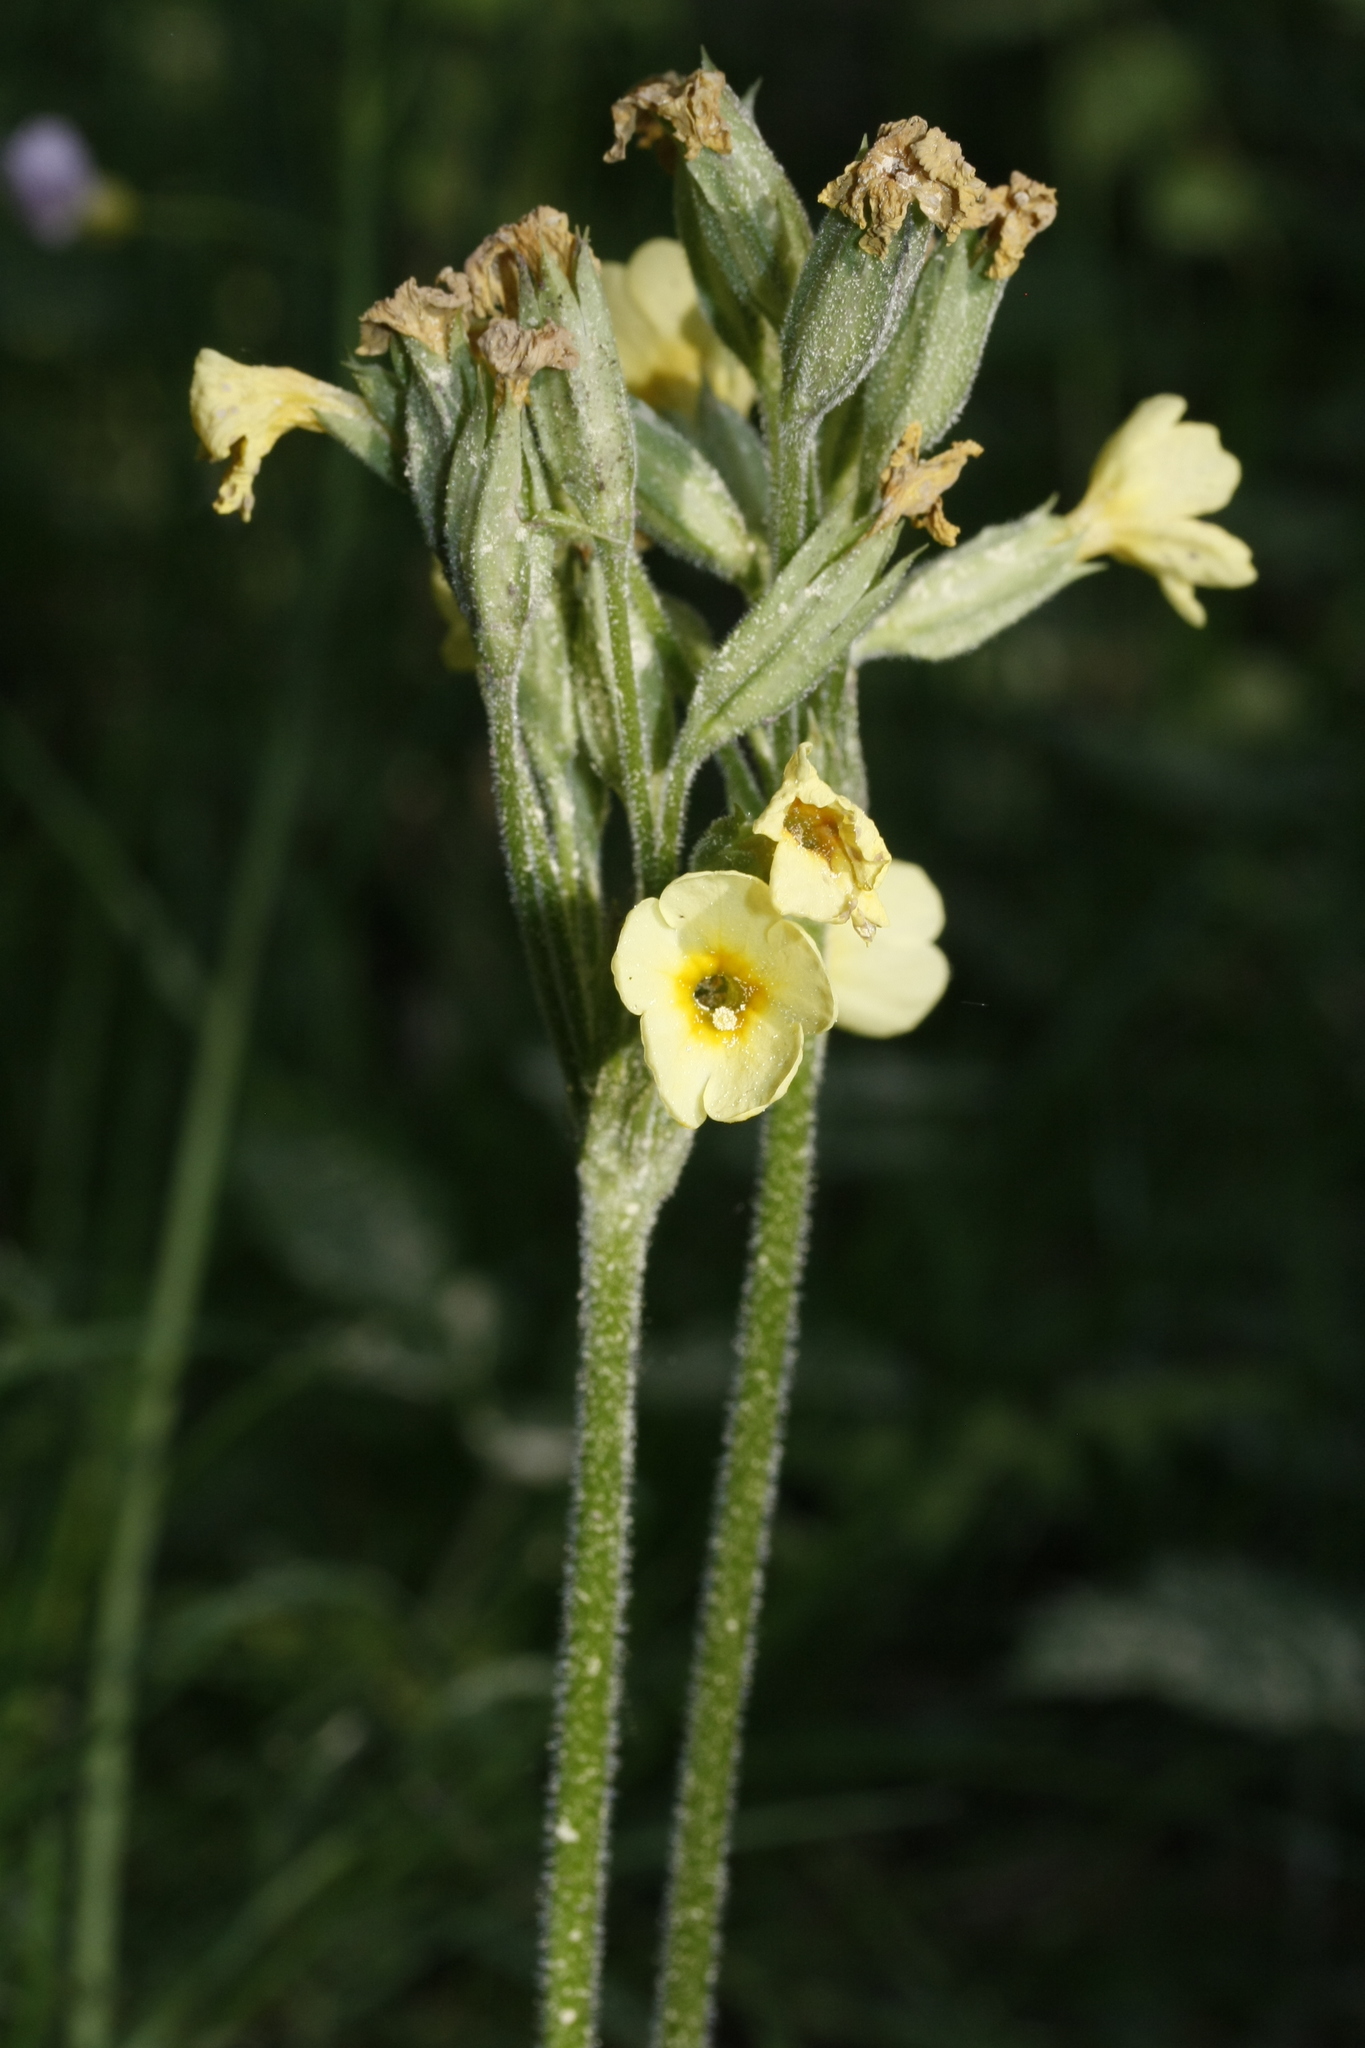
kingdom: Plantae
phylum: Tracheophyta
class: Magnoliopsida
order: Ericales
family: Primulaceae
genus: Primula
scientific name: Primula elatior
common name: Oxlip
